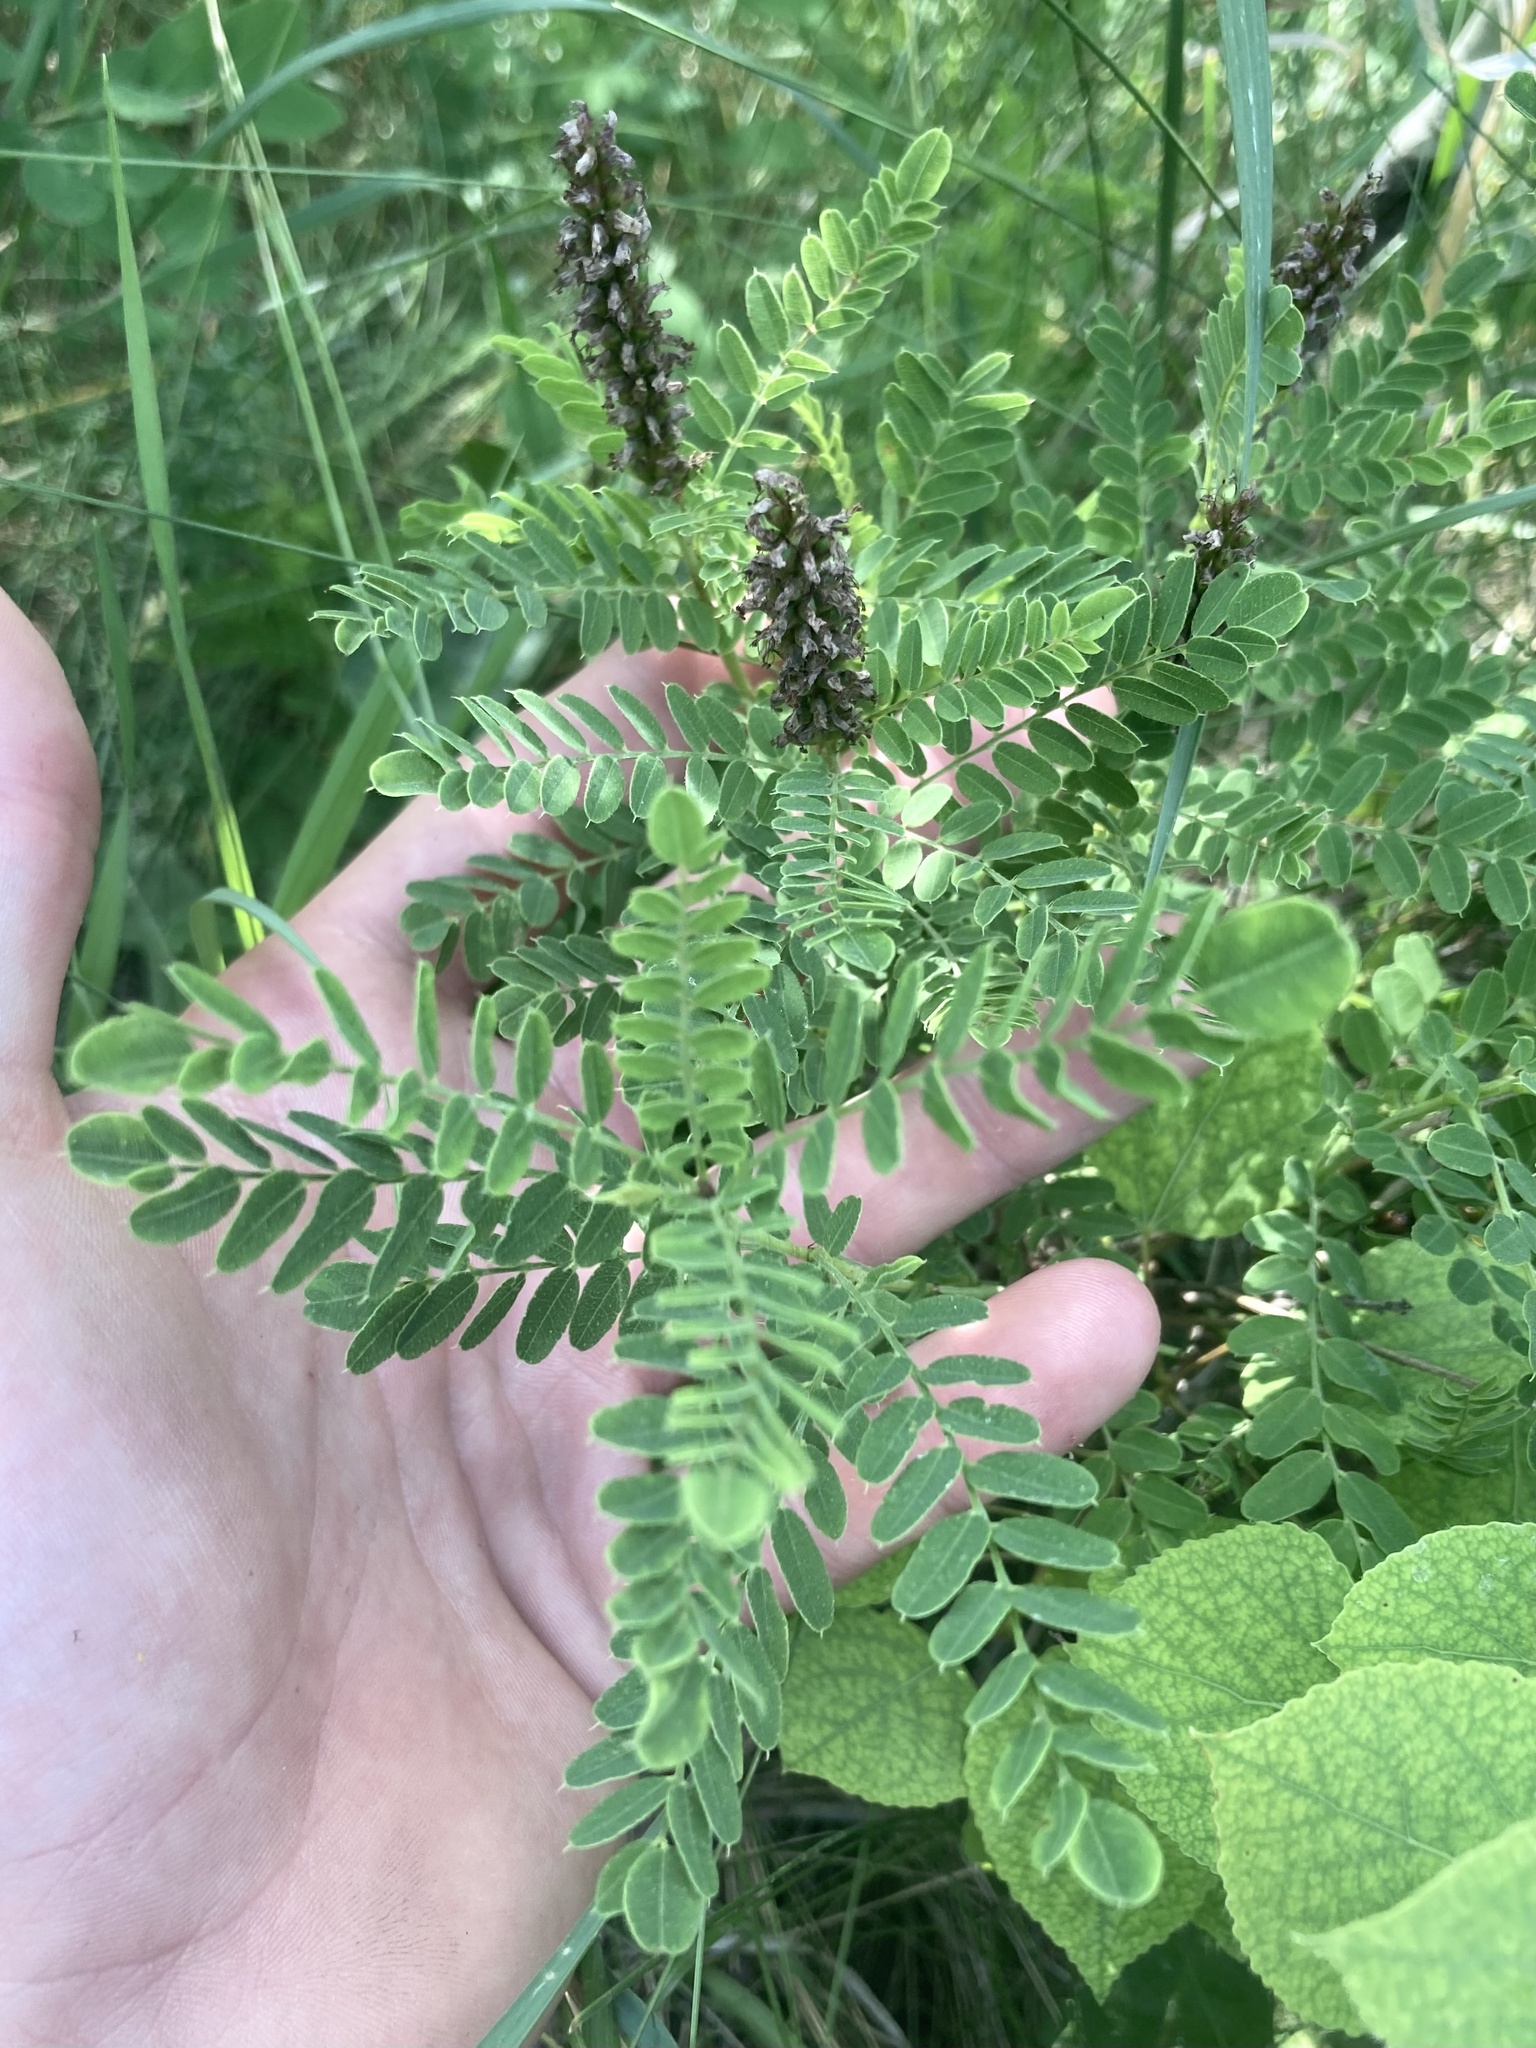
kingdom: Plantae
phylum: Tracheophyta
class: Magnoliopsida
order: Fabales
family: Fabaceae
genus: Amorpha
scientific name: Amorpha nana
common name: Fragrant false indigo
